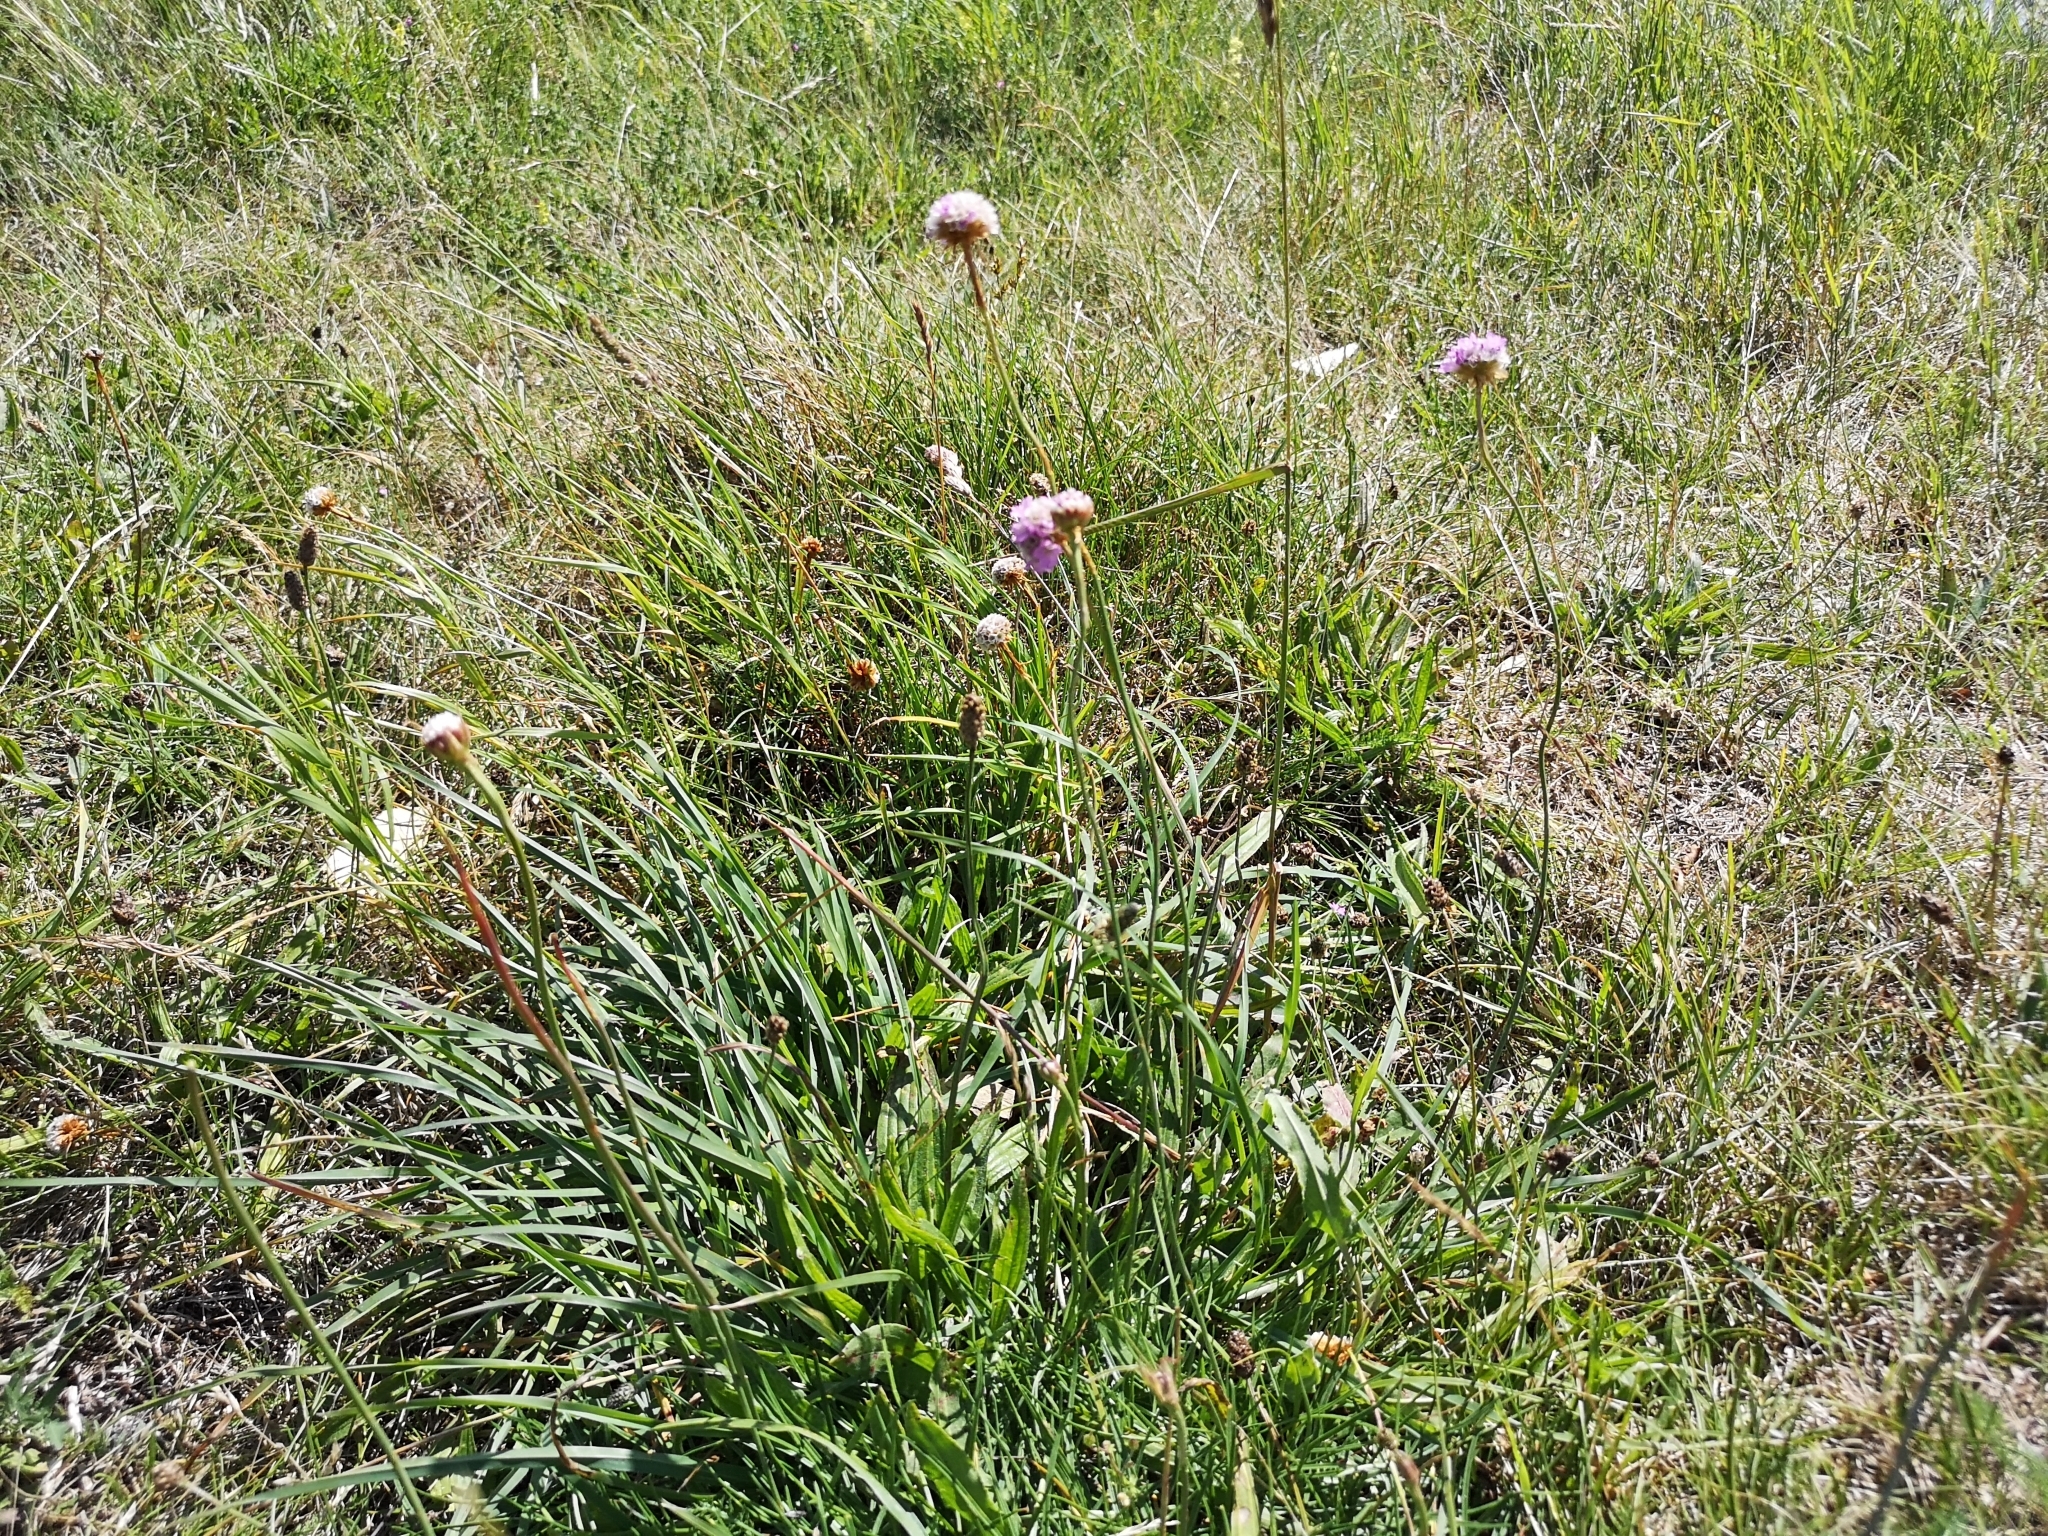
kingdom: Plantae
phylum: Tracheophyta
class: Magnoliopsida
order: Caryophyllales
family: Plumbaginaceae
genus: Armeria
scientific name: Armeria maritima
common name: Thrift
